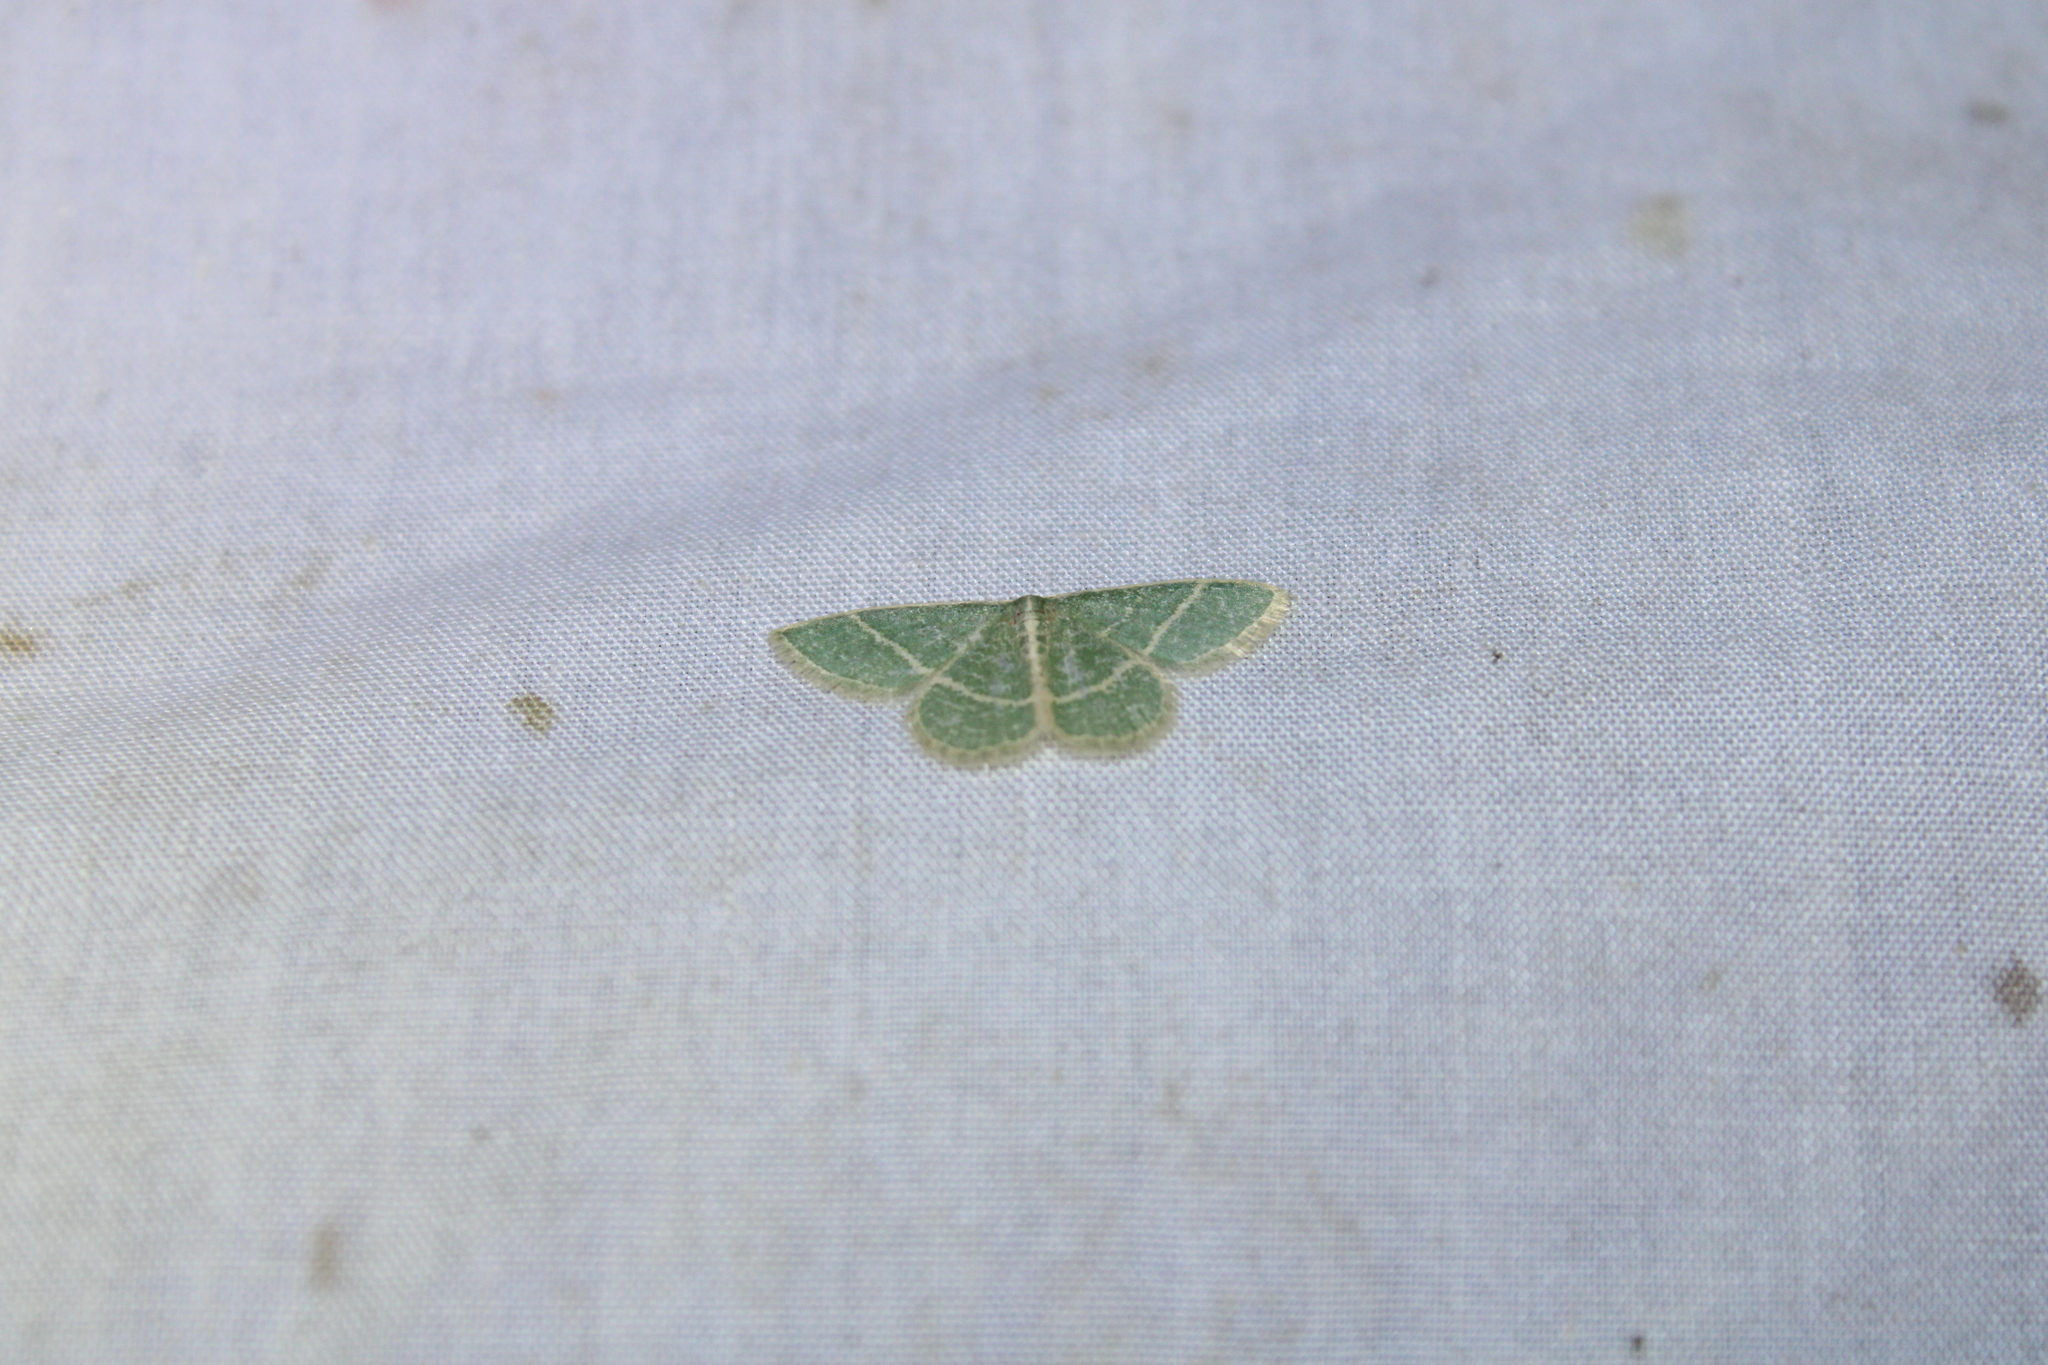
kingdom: Animalia
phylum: Arthropoda
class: Insecta
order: Lepidoptera
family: Geometridae
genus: Chlorochlamys
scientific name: Chlorochlamys chloroleucaria
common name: Blackberry looper
